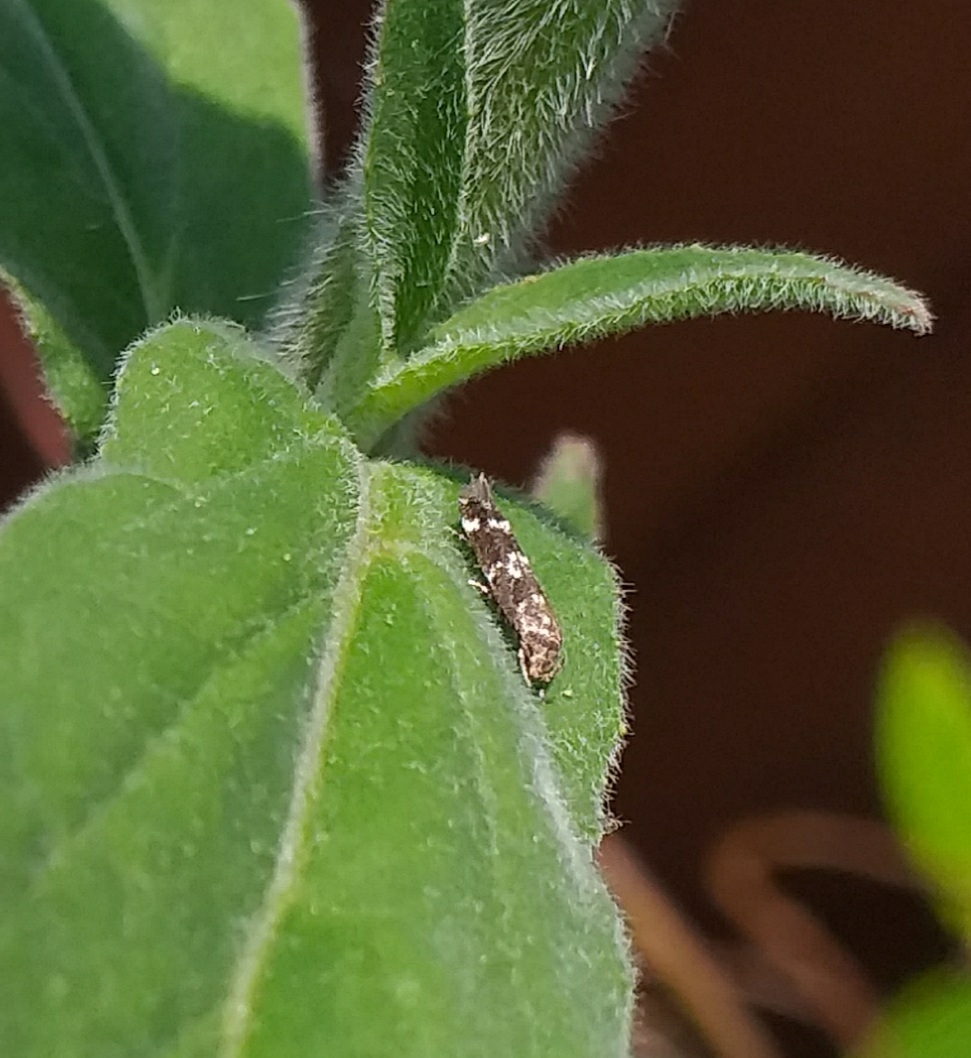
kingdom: Animalia
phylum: Arthropoda
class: Insecta
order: Lepidoptera
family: Momphidae
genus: Mompha
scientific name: Mompha subbistrigella
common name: Garden cosmet
